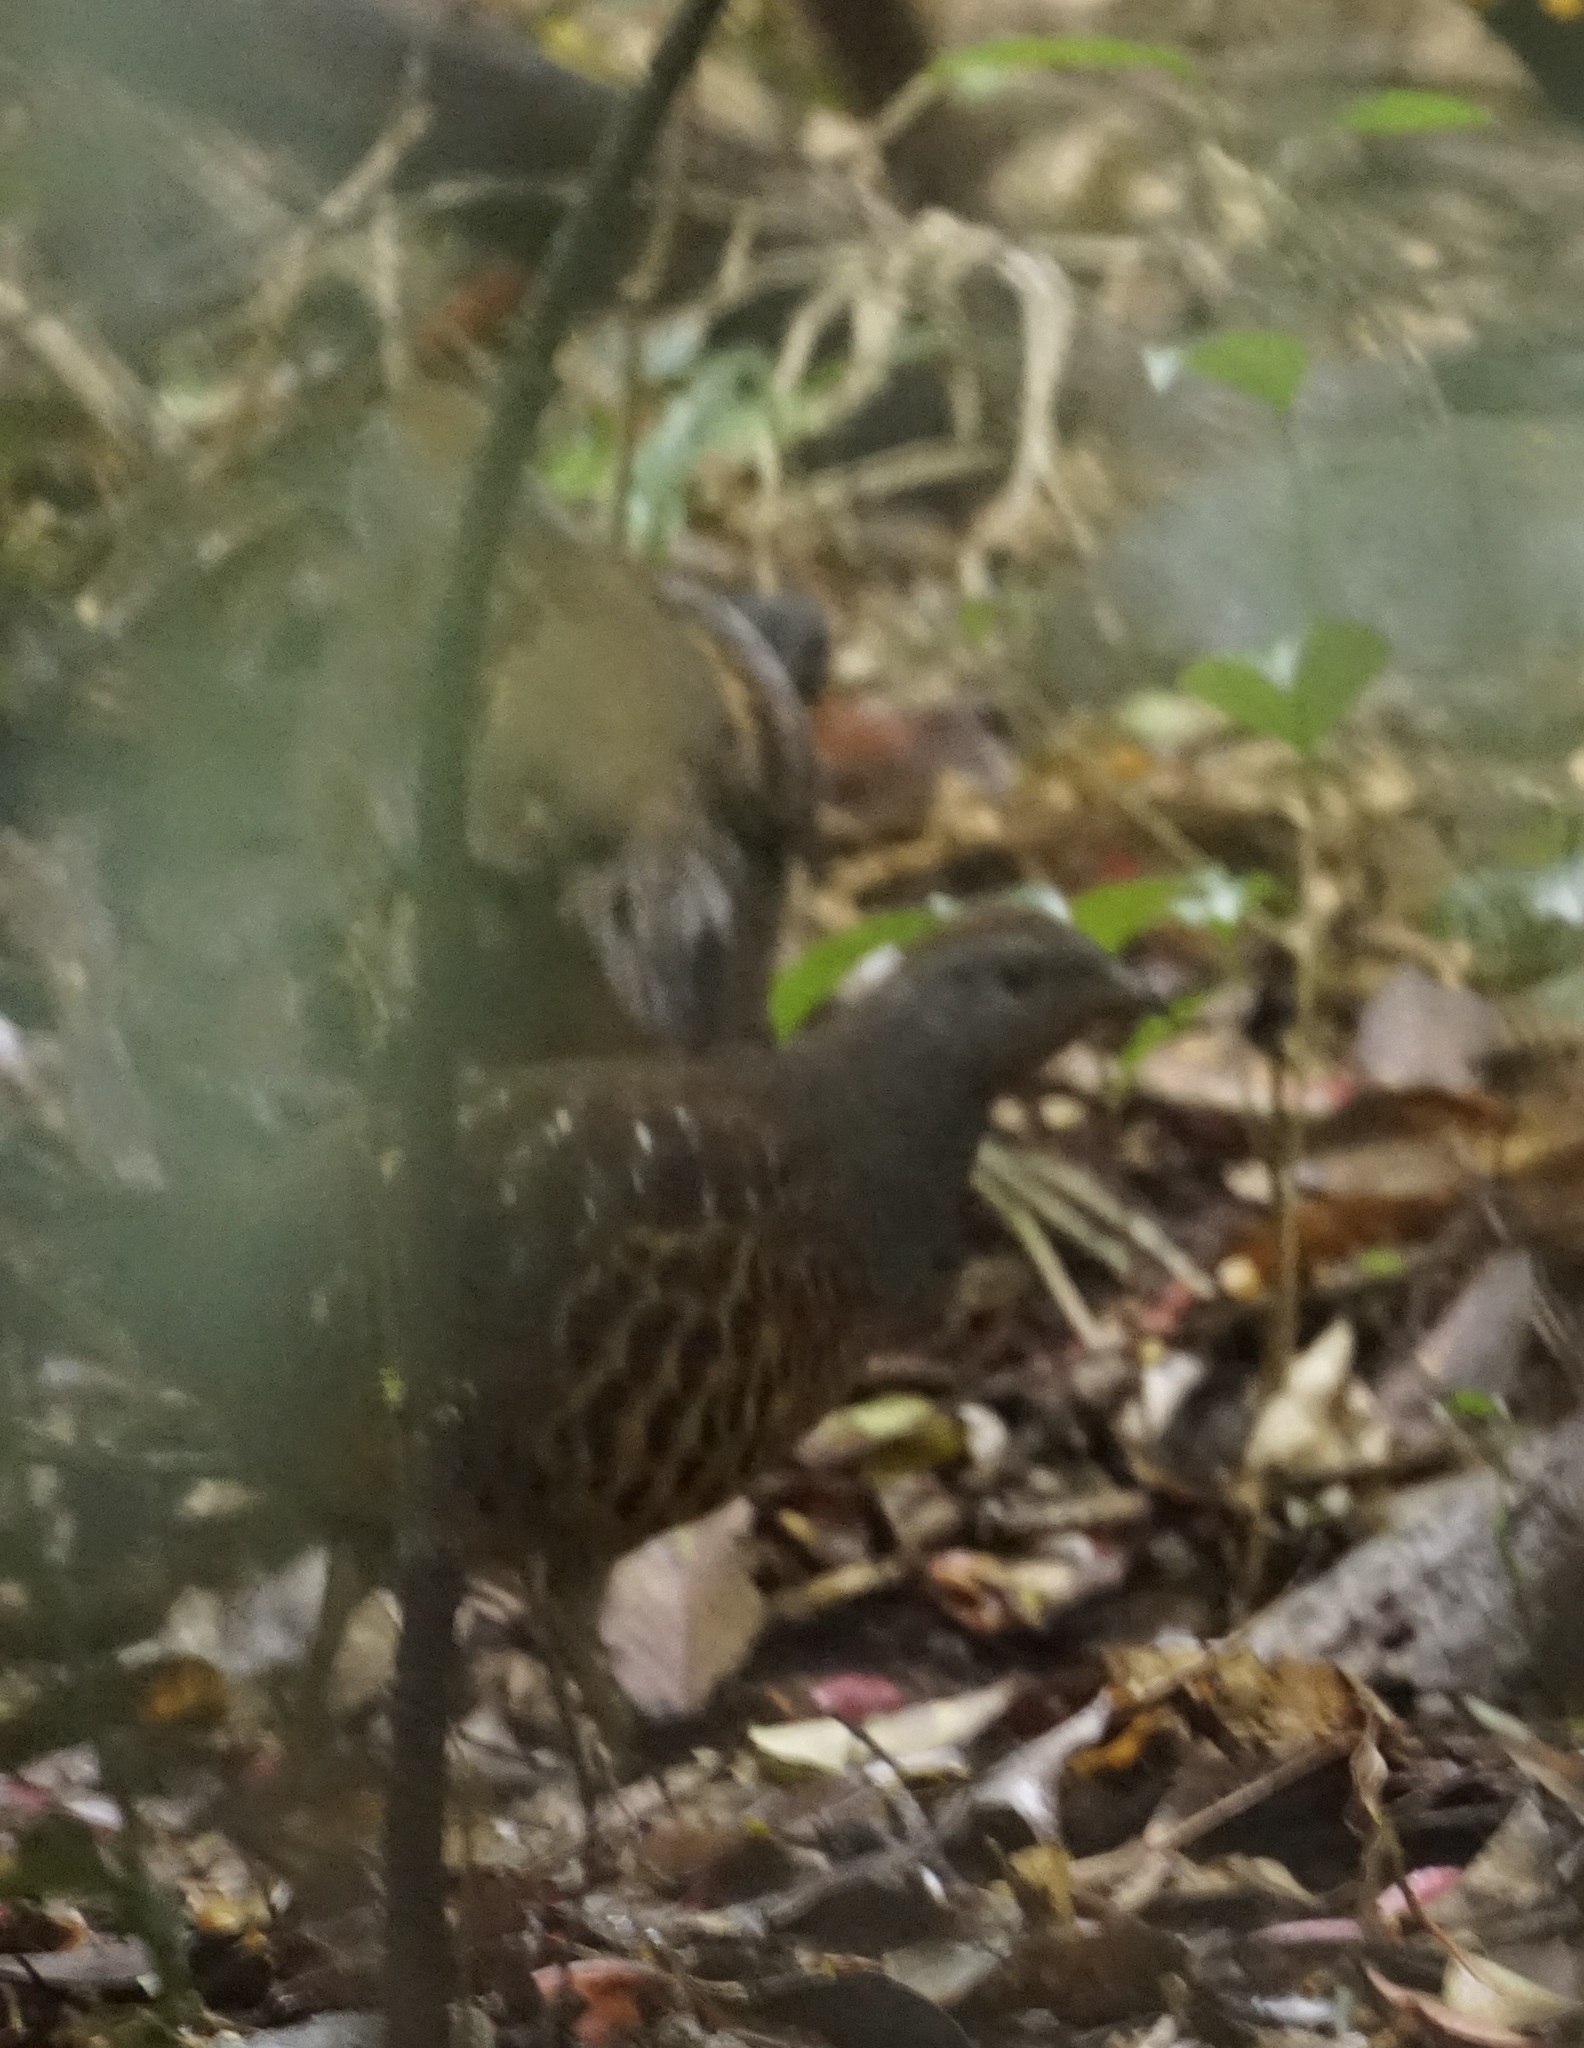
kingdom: Animalia
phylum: Chordata
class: Aves
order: Galliformes
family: Phasianidae
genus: Bambusicola
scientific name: Bambusicola sonorivox
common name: Taiwan bamboo-partridge
